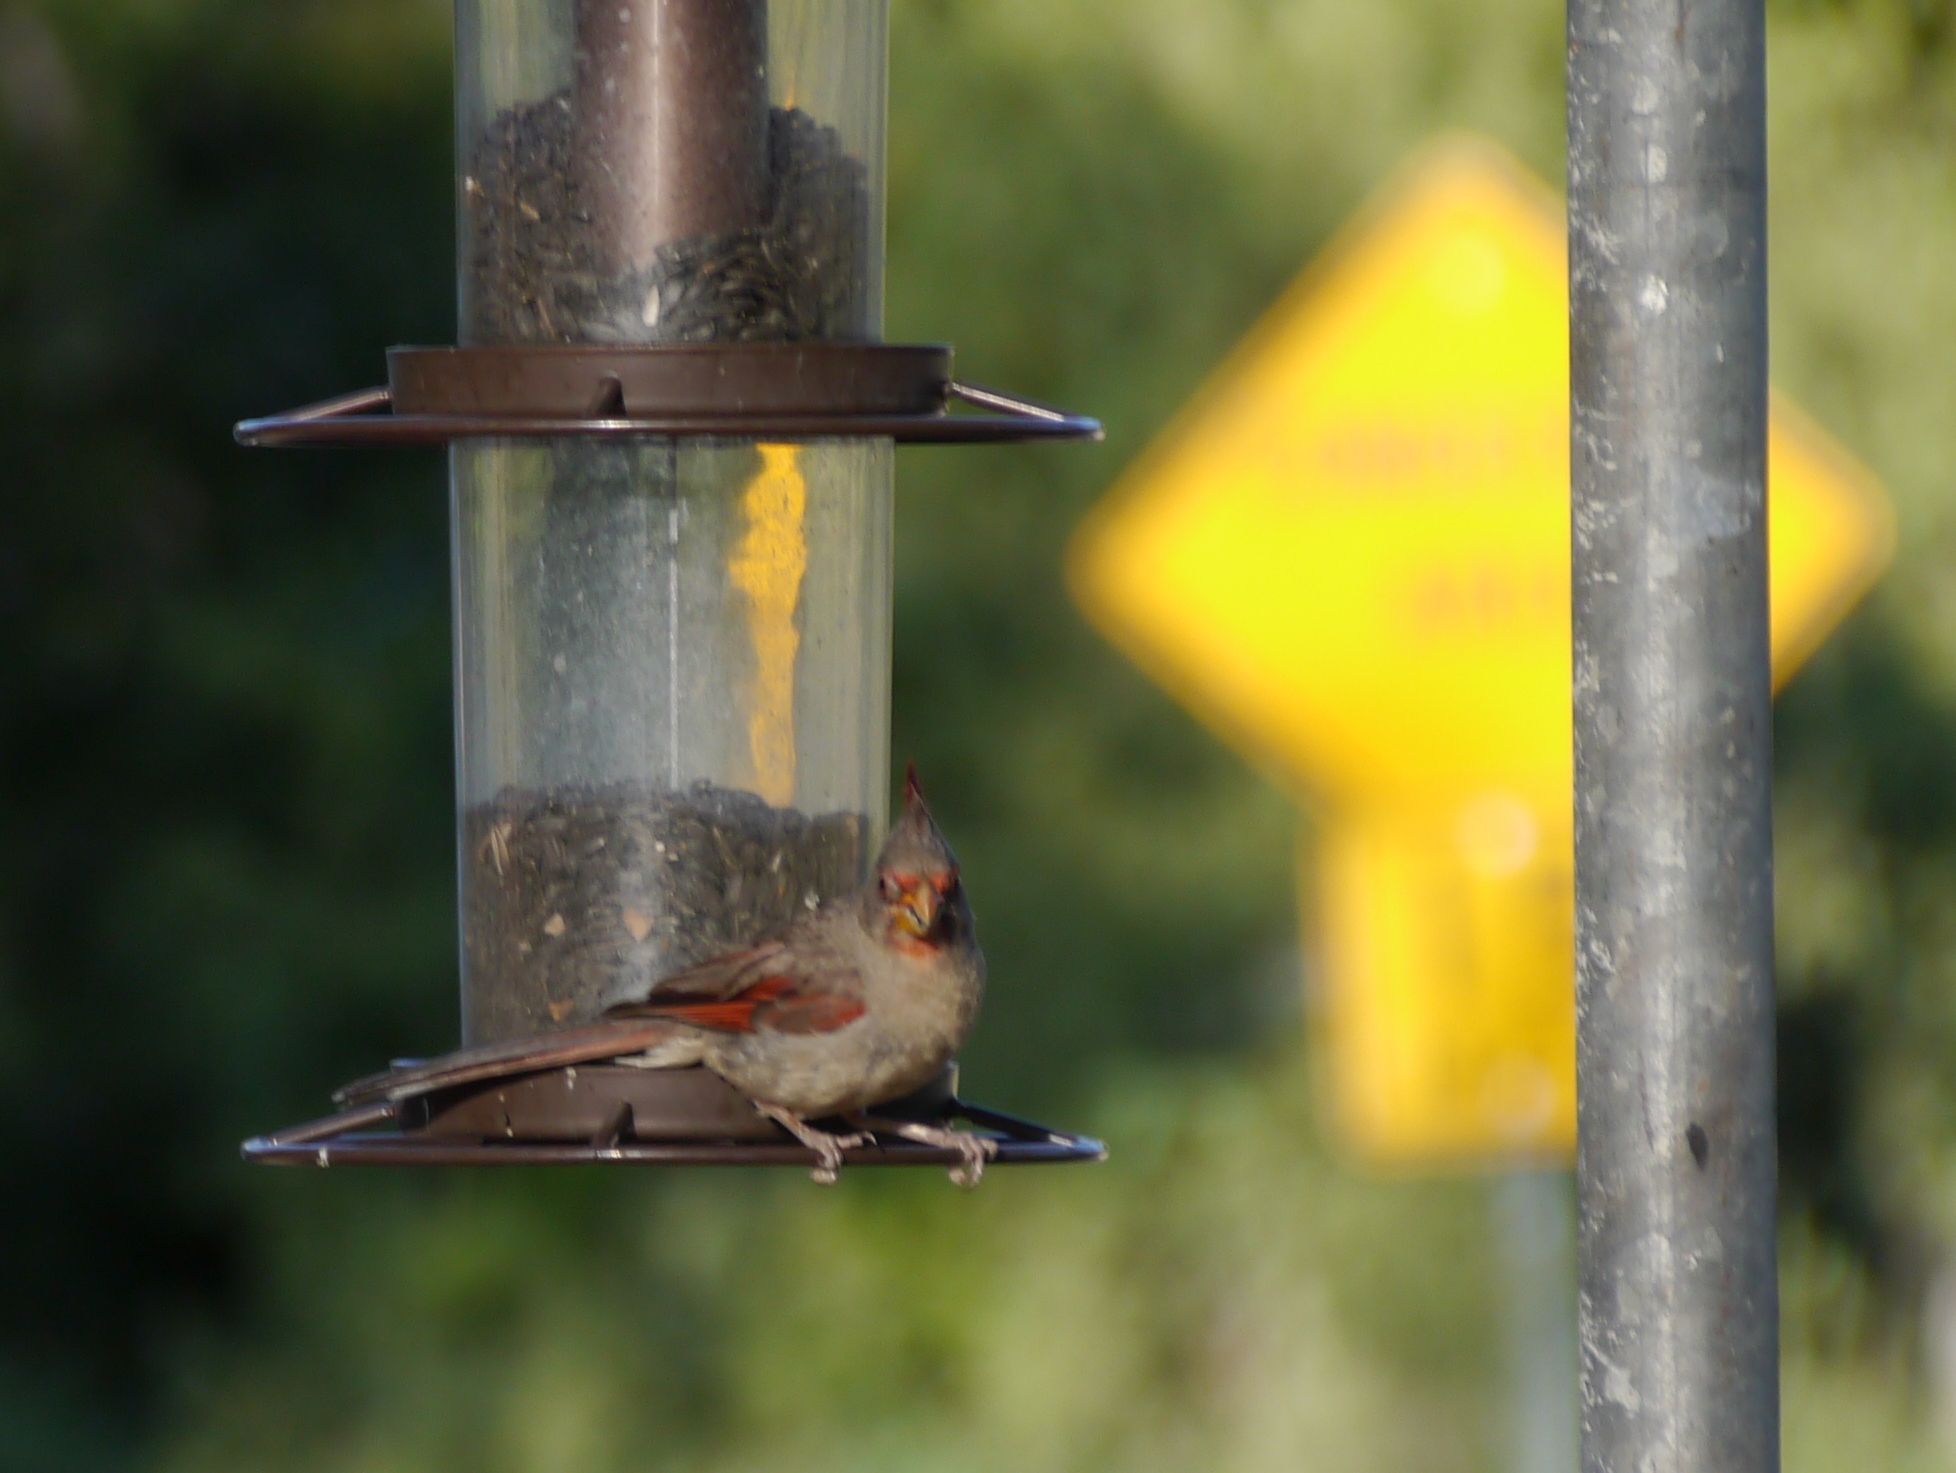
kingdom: Animalia
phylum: Chordata
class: Aves
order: Passeriformes
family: Cardinalidae
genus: Cardinalis
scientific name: Cardinalis sinuatus
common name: Pyrrhuloxia
